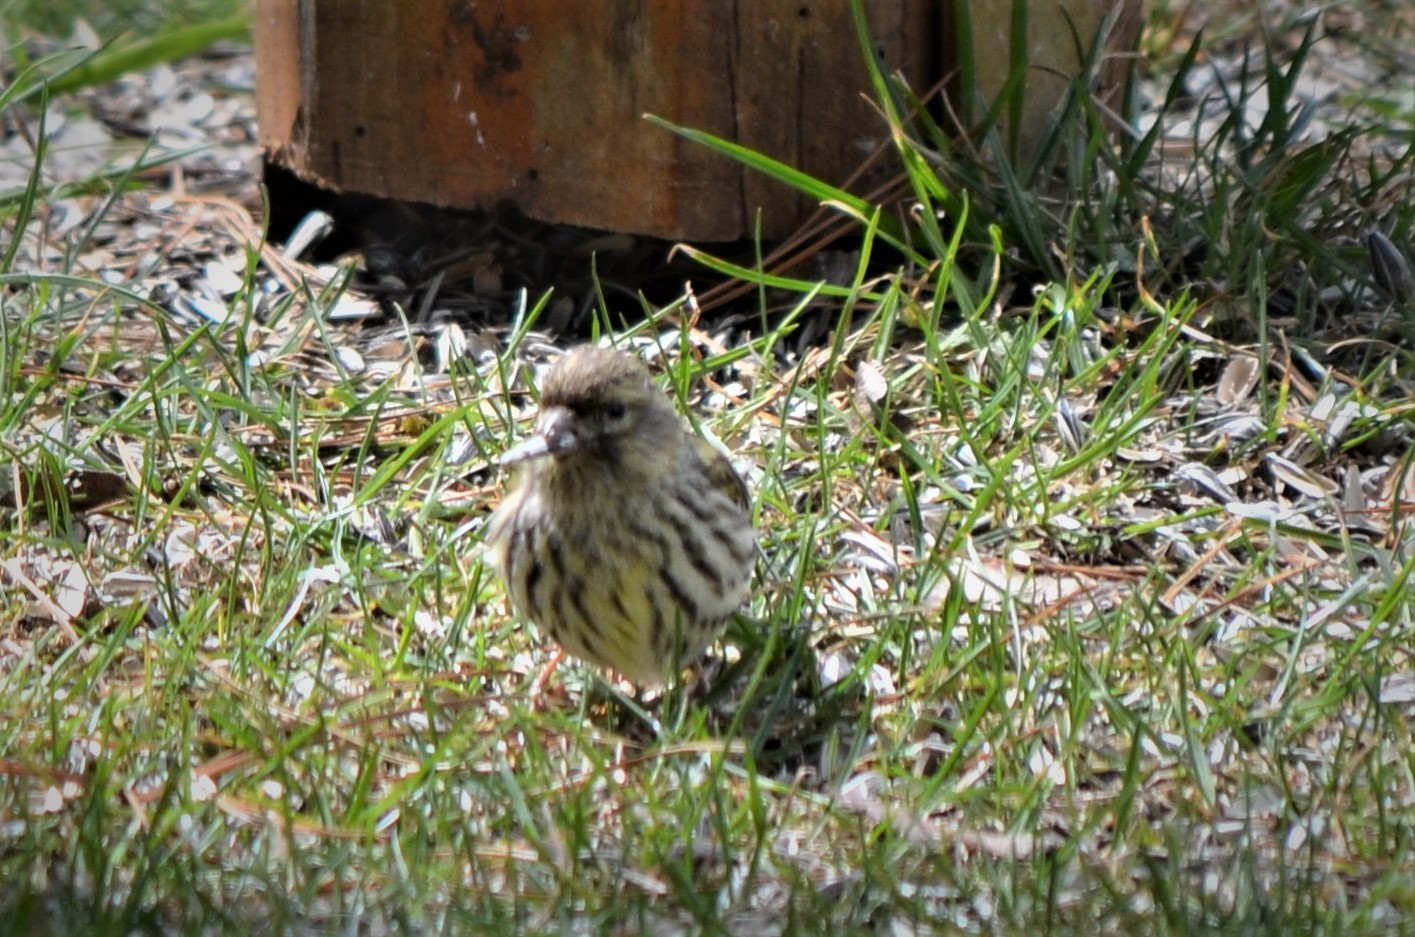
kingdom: Animalia
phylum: Chordata
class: Aves
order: Passeriformes
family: Fringillidae
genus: Serinus
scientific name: Serinus serinus
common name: European serin
